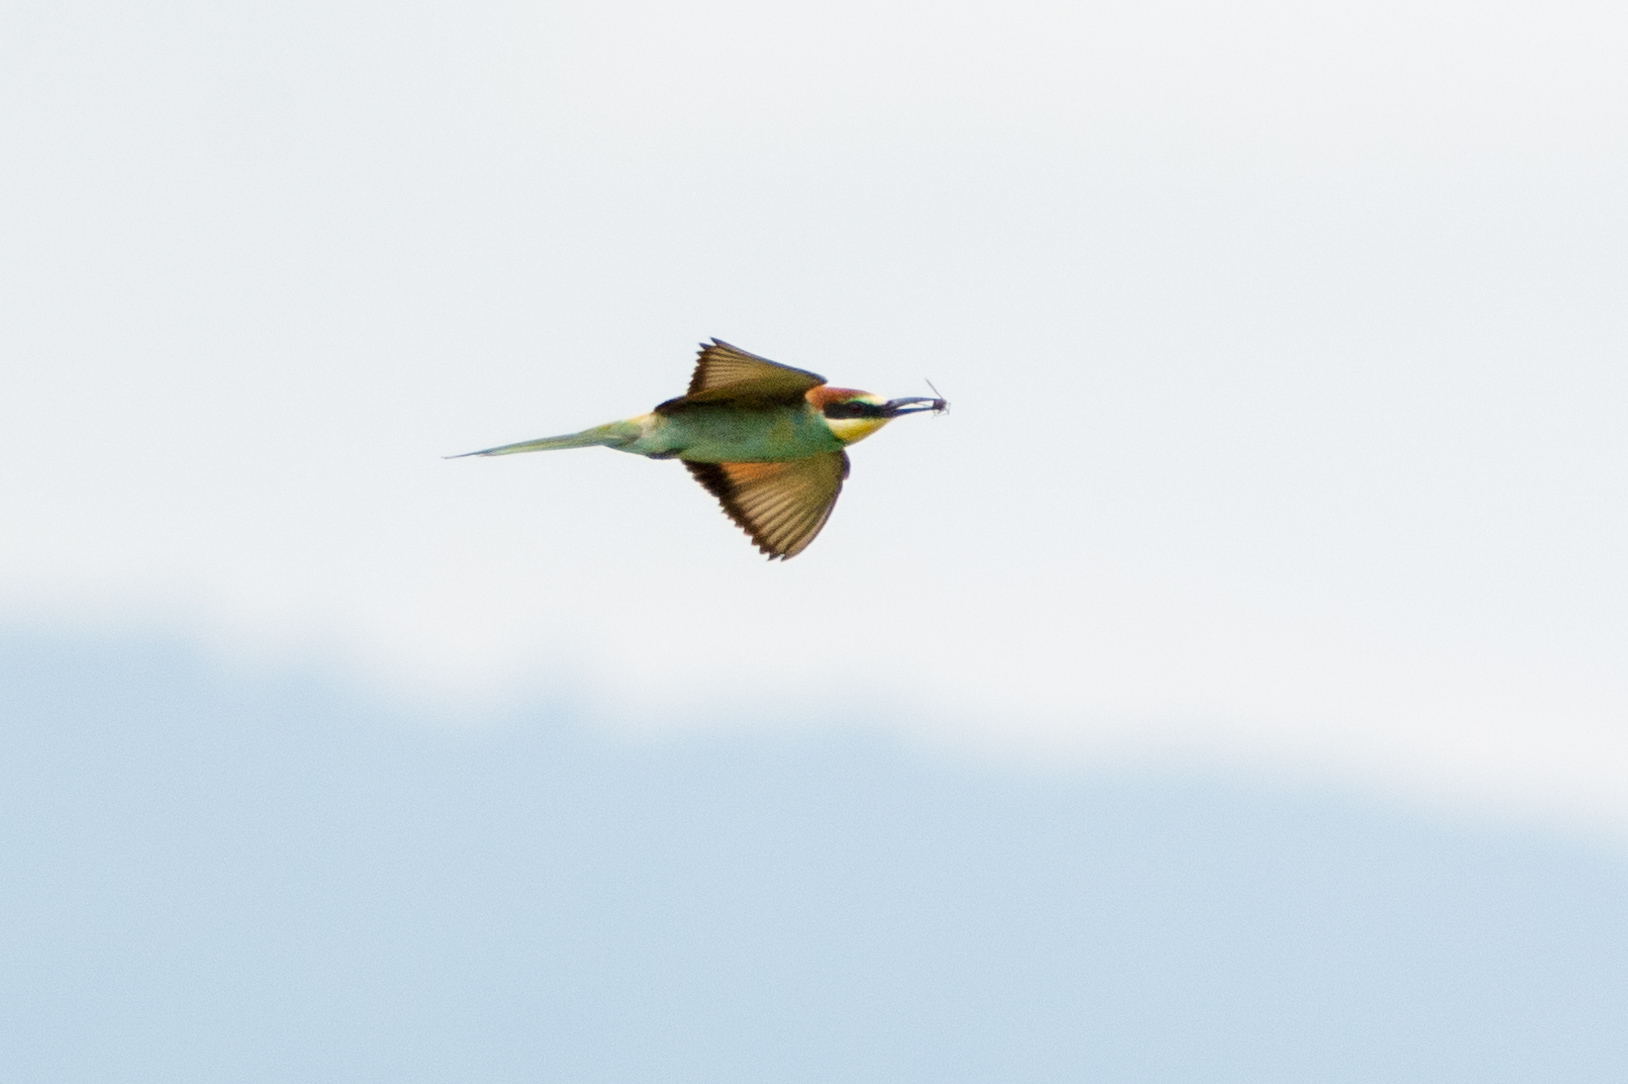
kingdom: Animalia
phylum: Chordata
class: Aves
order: Coraciiformes
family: Meropidae
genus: Merops
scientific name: Merops apiaster
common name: European bee-eater
